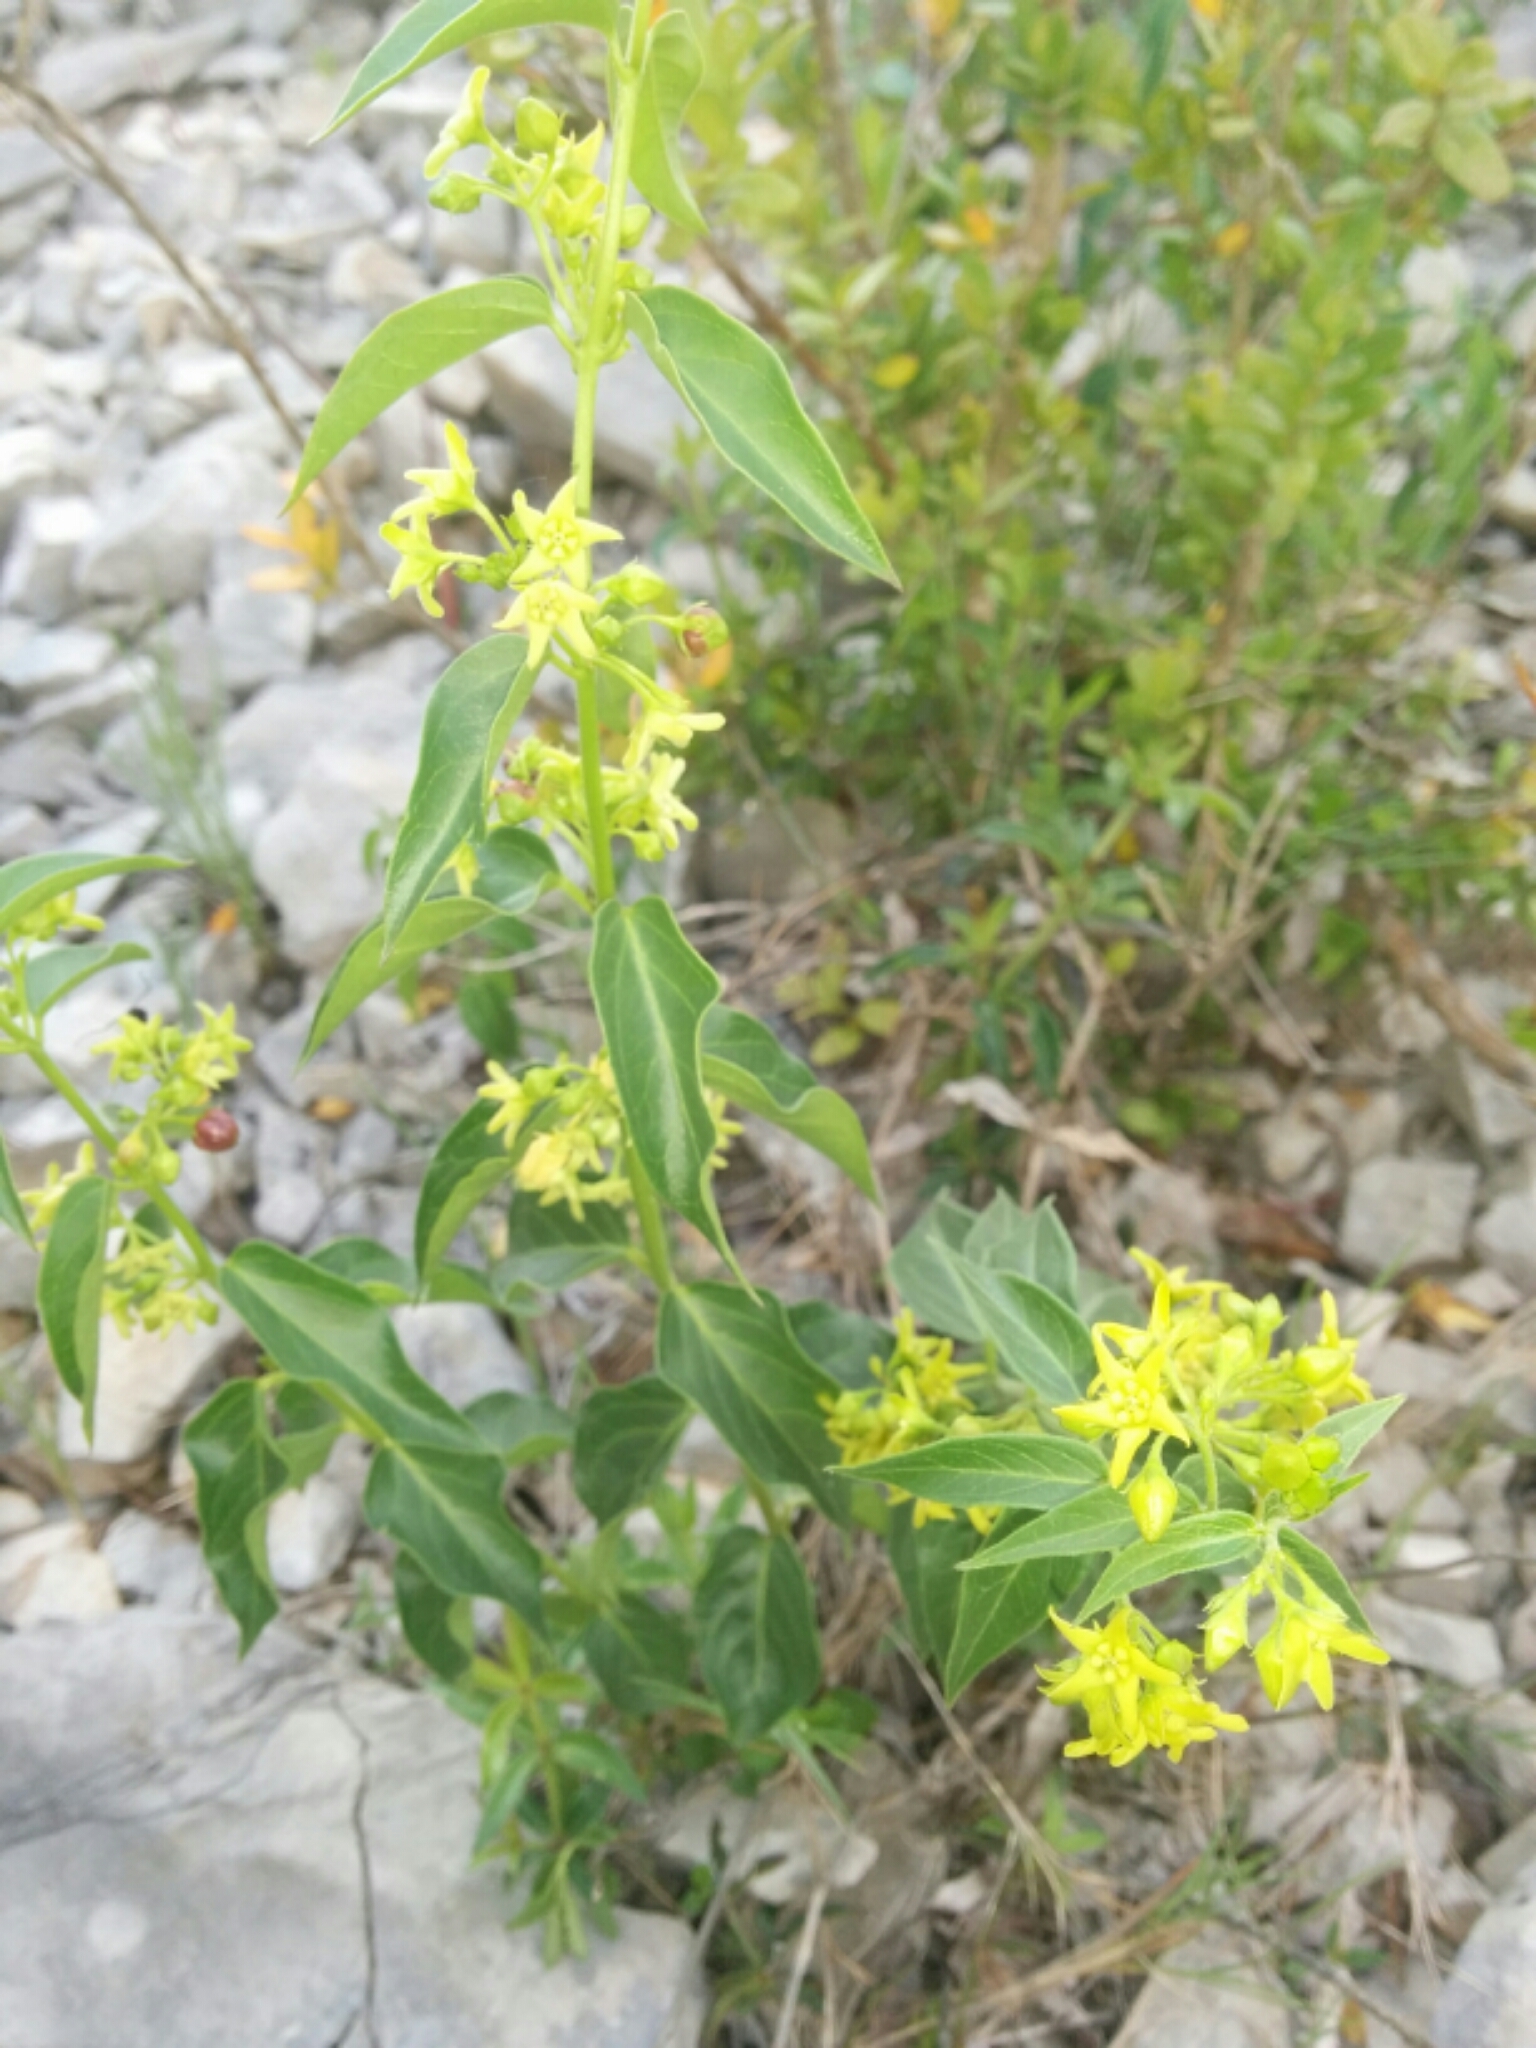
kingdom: Plantae
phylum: Tracheophyta
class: Magnoliopsida
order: Gentianales
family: Apocynaceae
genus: Vincetoxicum
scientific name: Vincetoxicum hirundinaria
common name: White swallowwort
